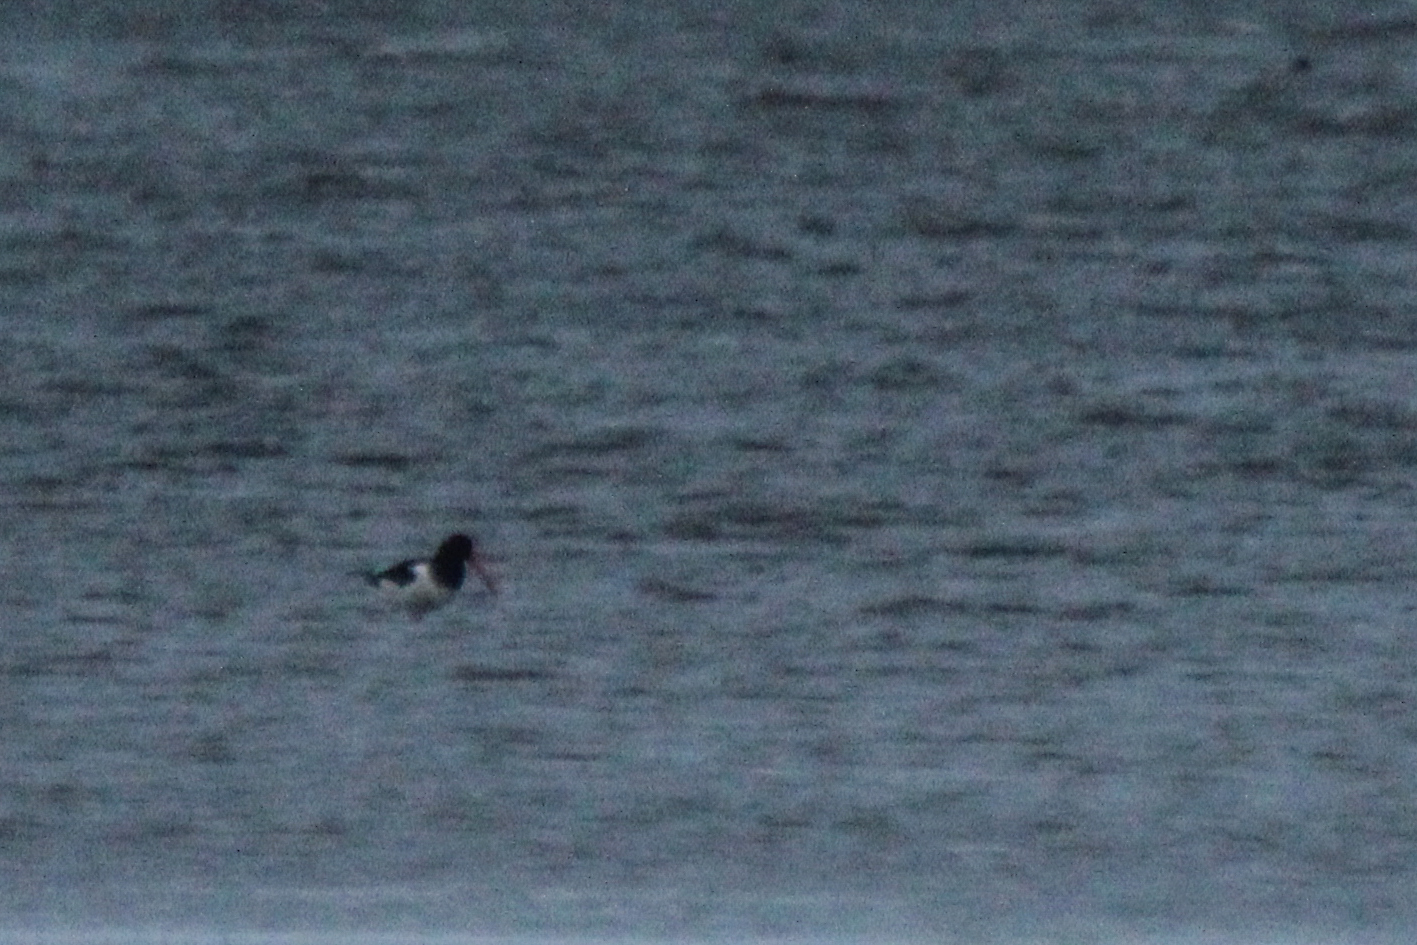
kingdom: Animalia
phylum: Chordata
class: Aves
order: Charadriiformes
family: Haematopodidae
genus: Haematopus
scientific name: Haematopus ostralegus
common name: Eurasian oystercatcher
